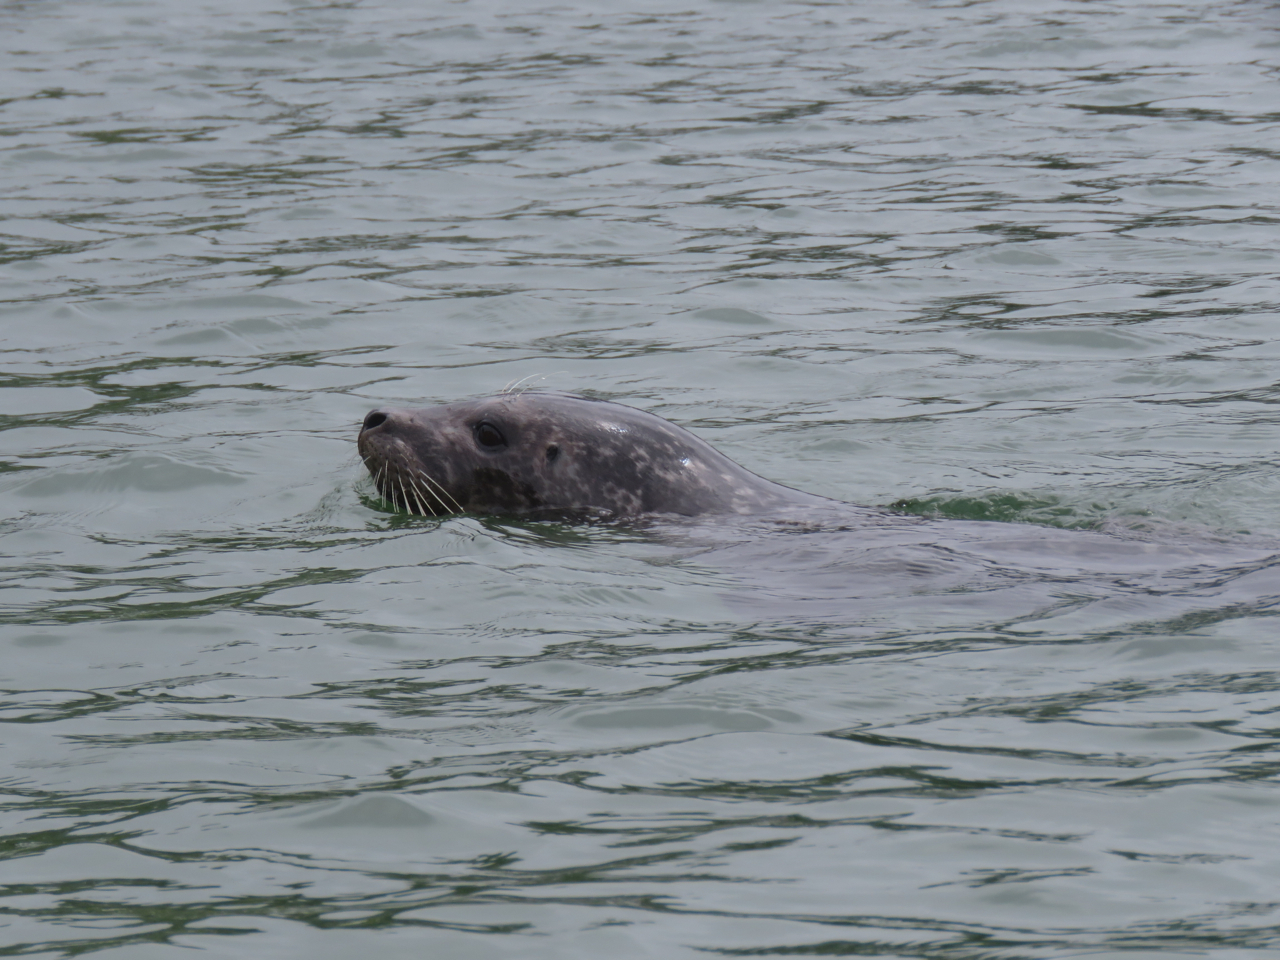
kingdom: Animalia
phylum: Chordata
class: Mammalia
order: Carnivora
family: Phocidae
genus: Phoca
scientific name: Phoca vitulina
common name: Harbor seal
